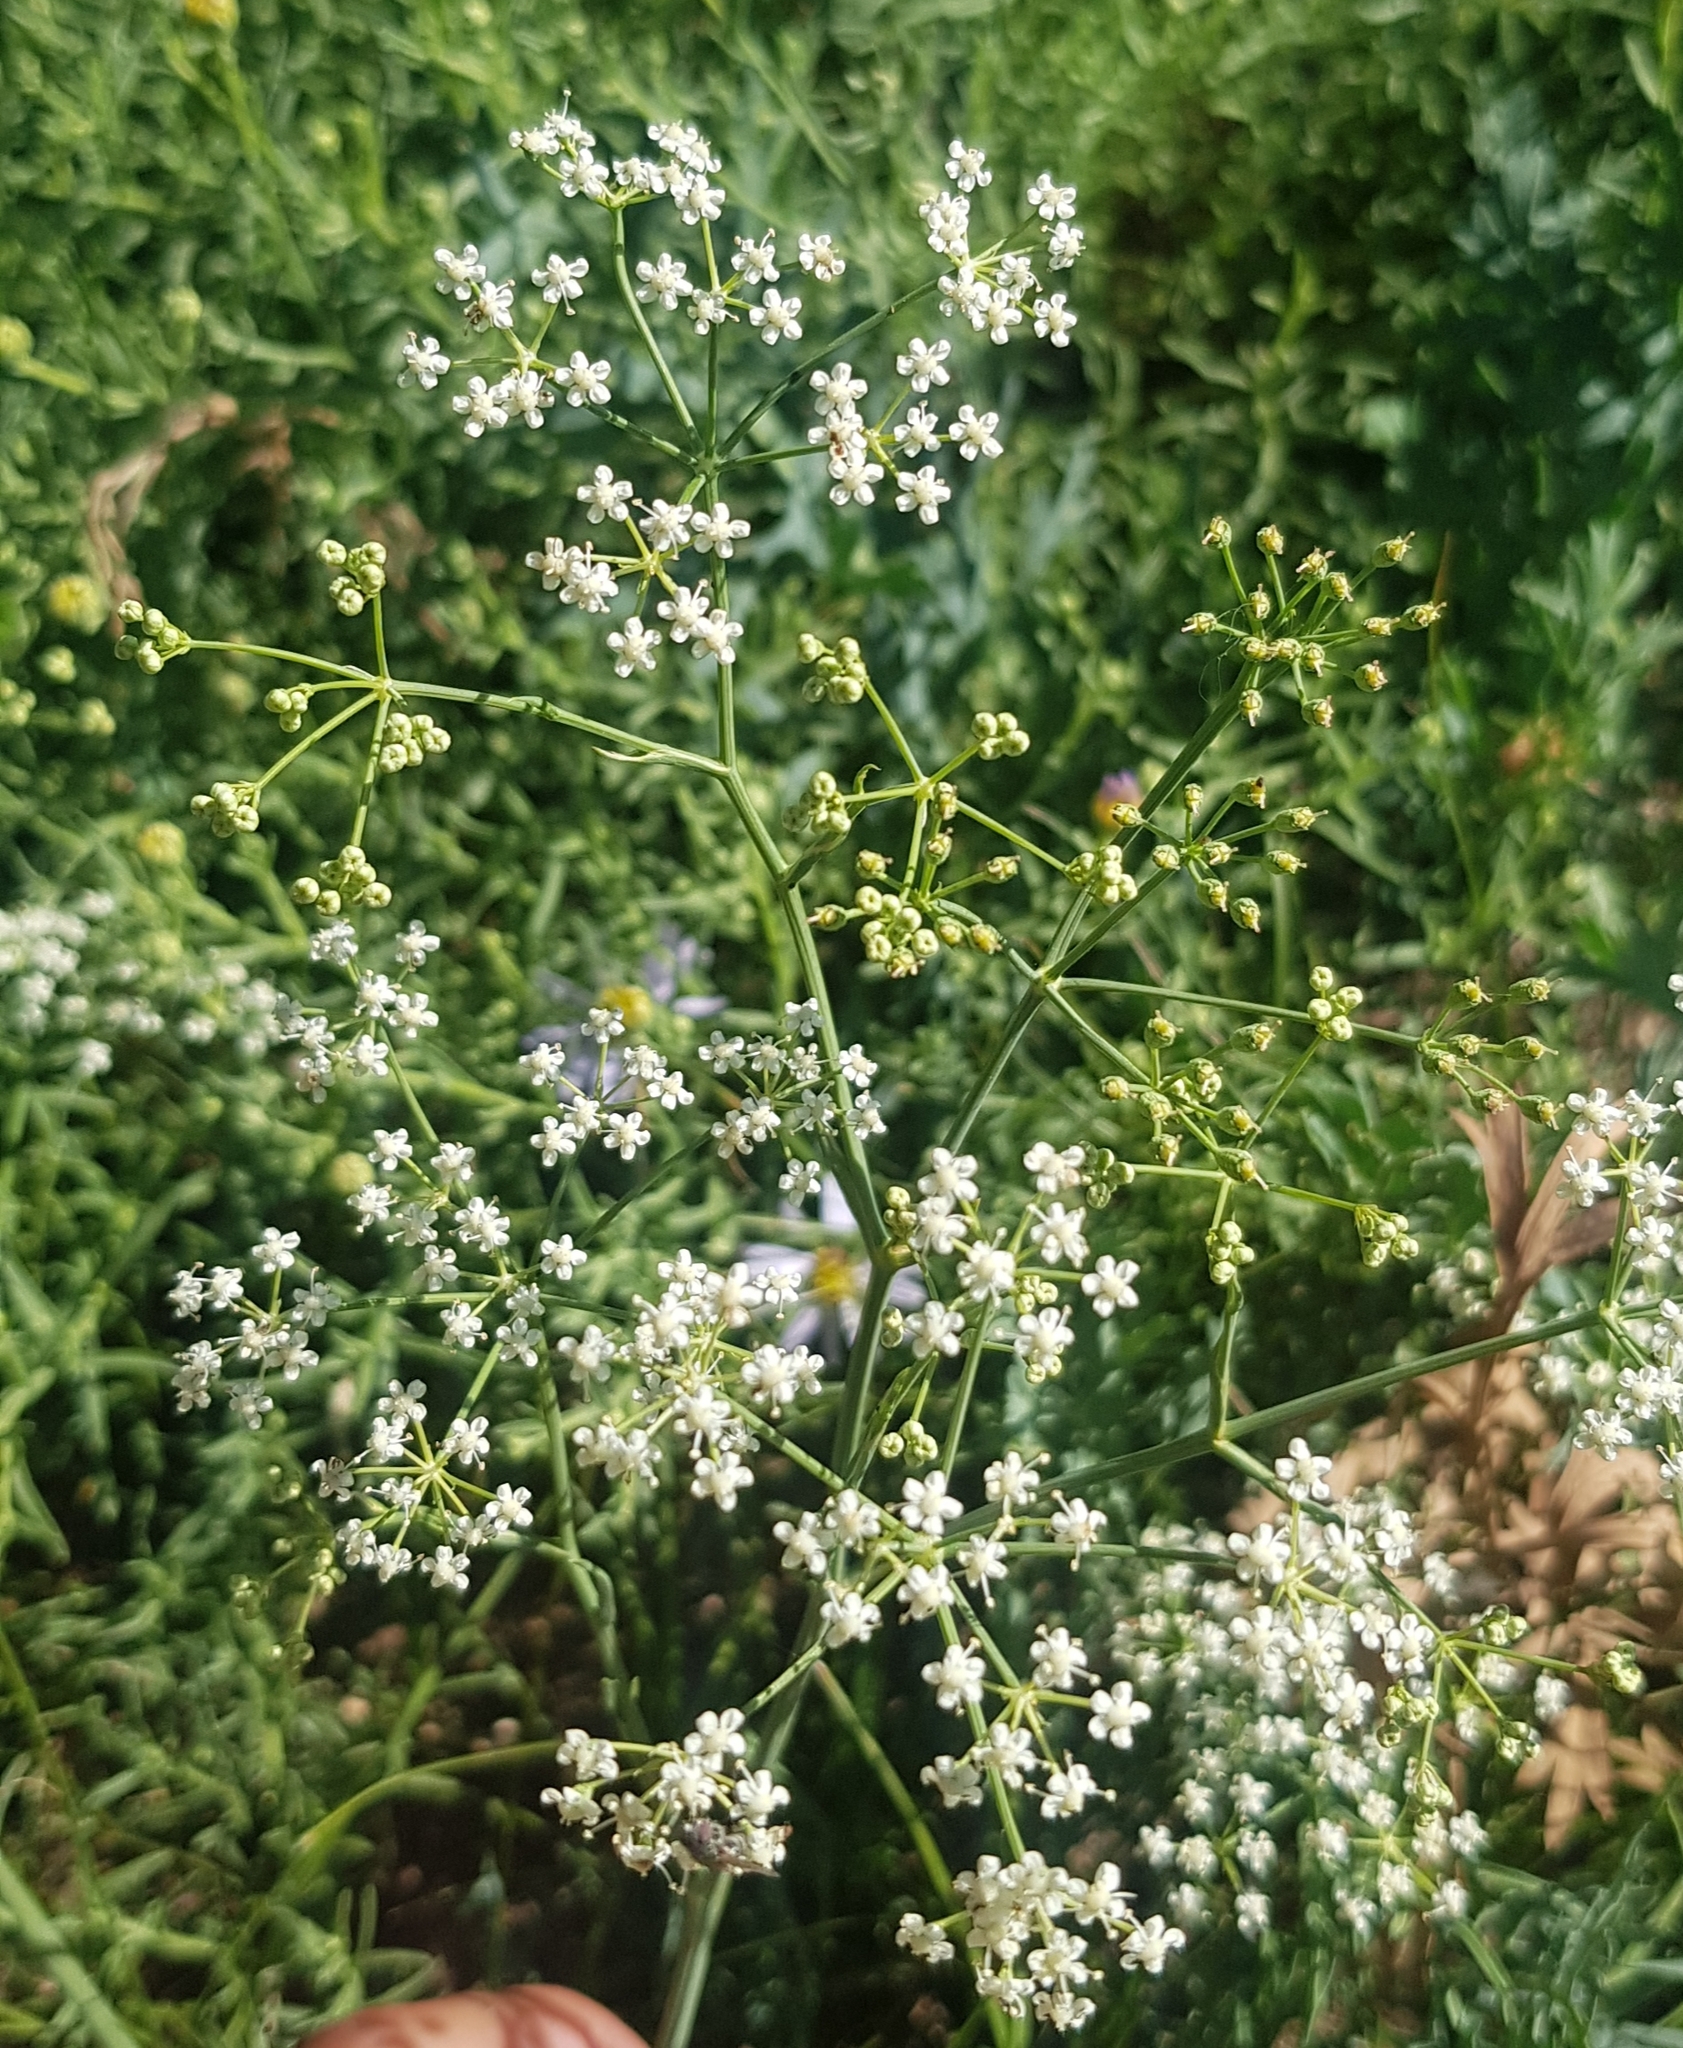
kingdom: Plantae
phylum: Tracheophyta
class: Magnoliopsida
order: Apiales
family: Apiaceae
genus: Saposhnikovia
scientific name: Saposhnikovia divaricata
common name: Siler
